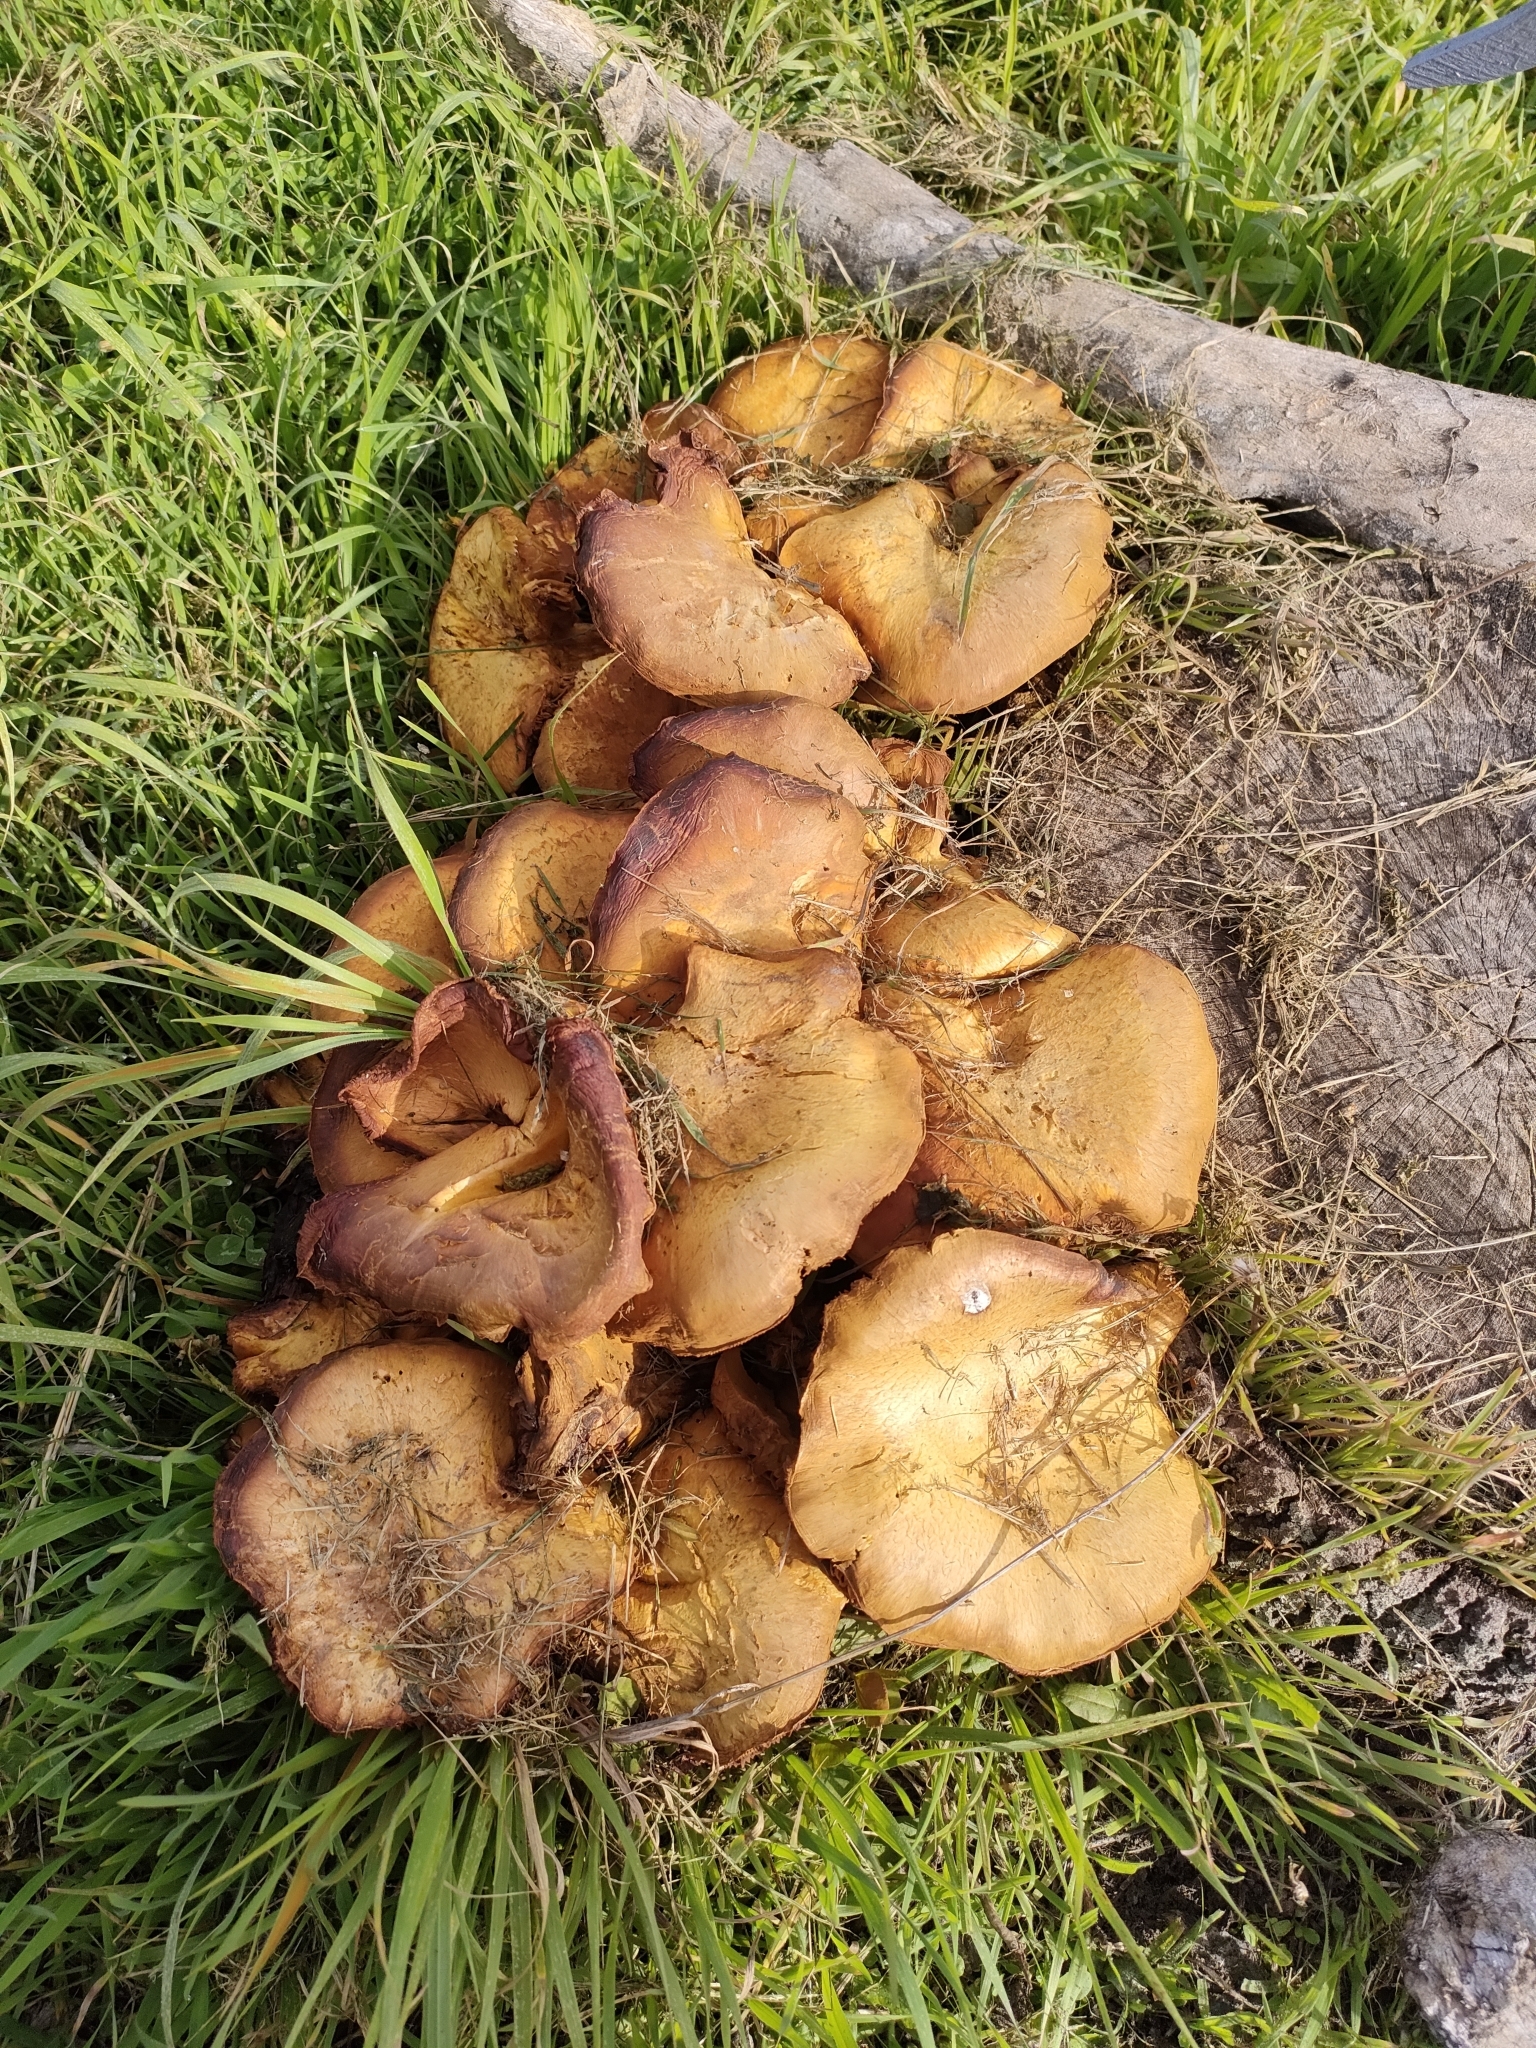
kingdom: Fungi
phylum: Basidiomycota
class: Agaricomycetes
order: Agaricales
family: Hymenogastraceae
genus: Gymnopilus
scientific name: Gymnopilus junonius
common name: Spectacular rustgill
